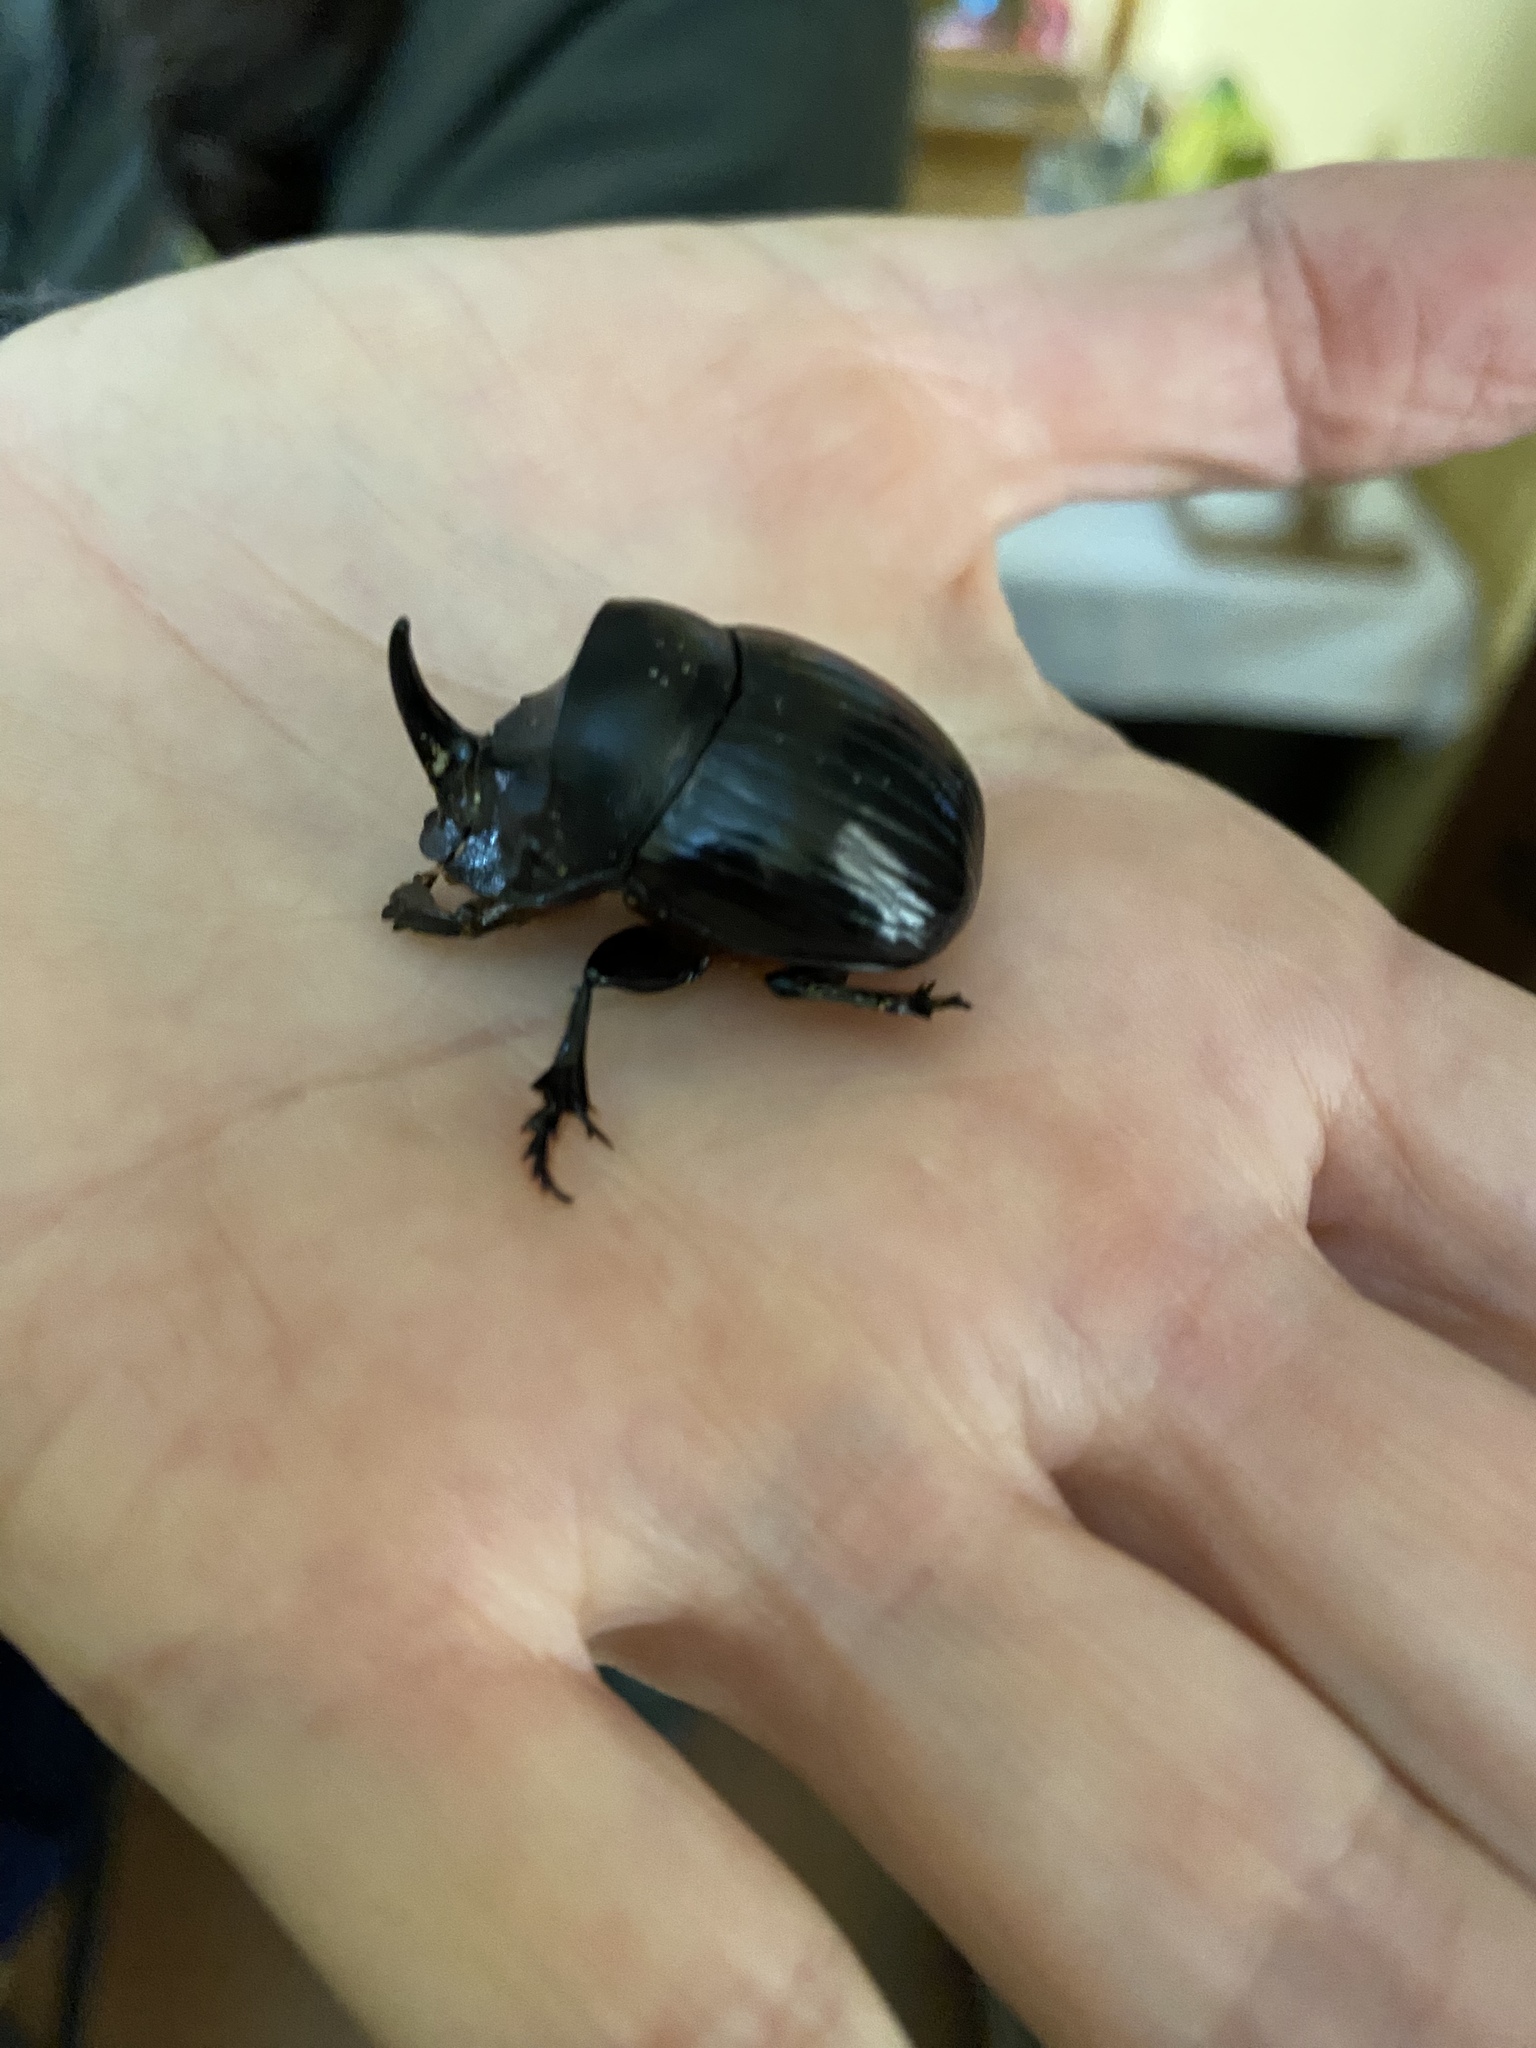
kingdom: Animalia
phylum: Arthropoda
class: Insecta
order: Coleoptera
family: Scarabaeidae
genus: Copris
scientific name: Copris hispanus
